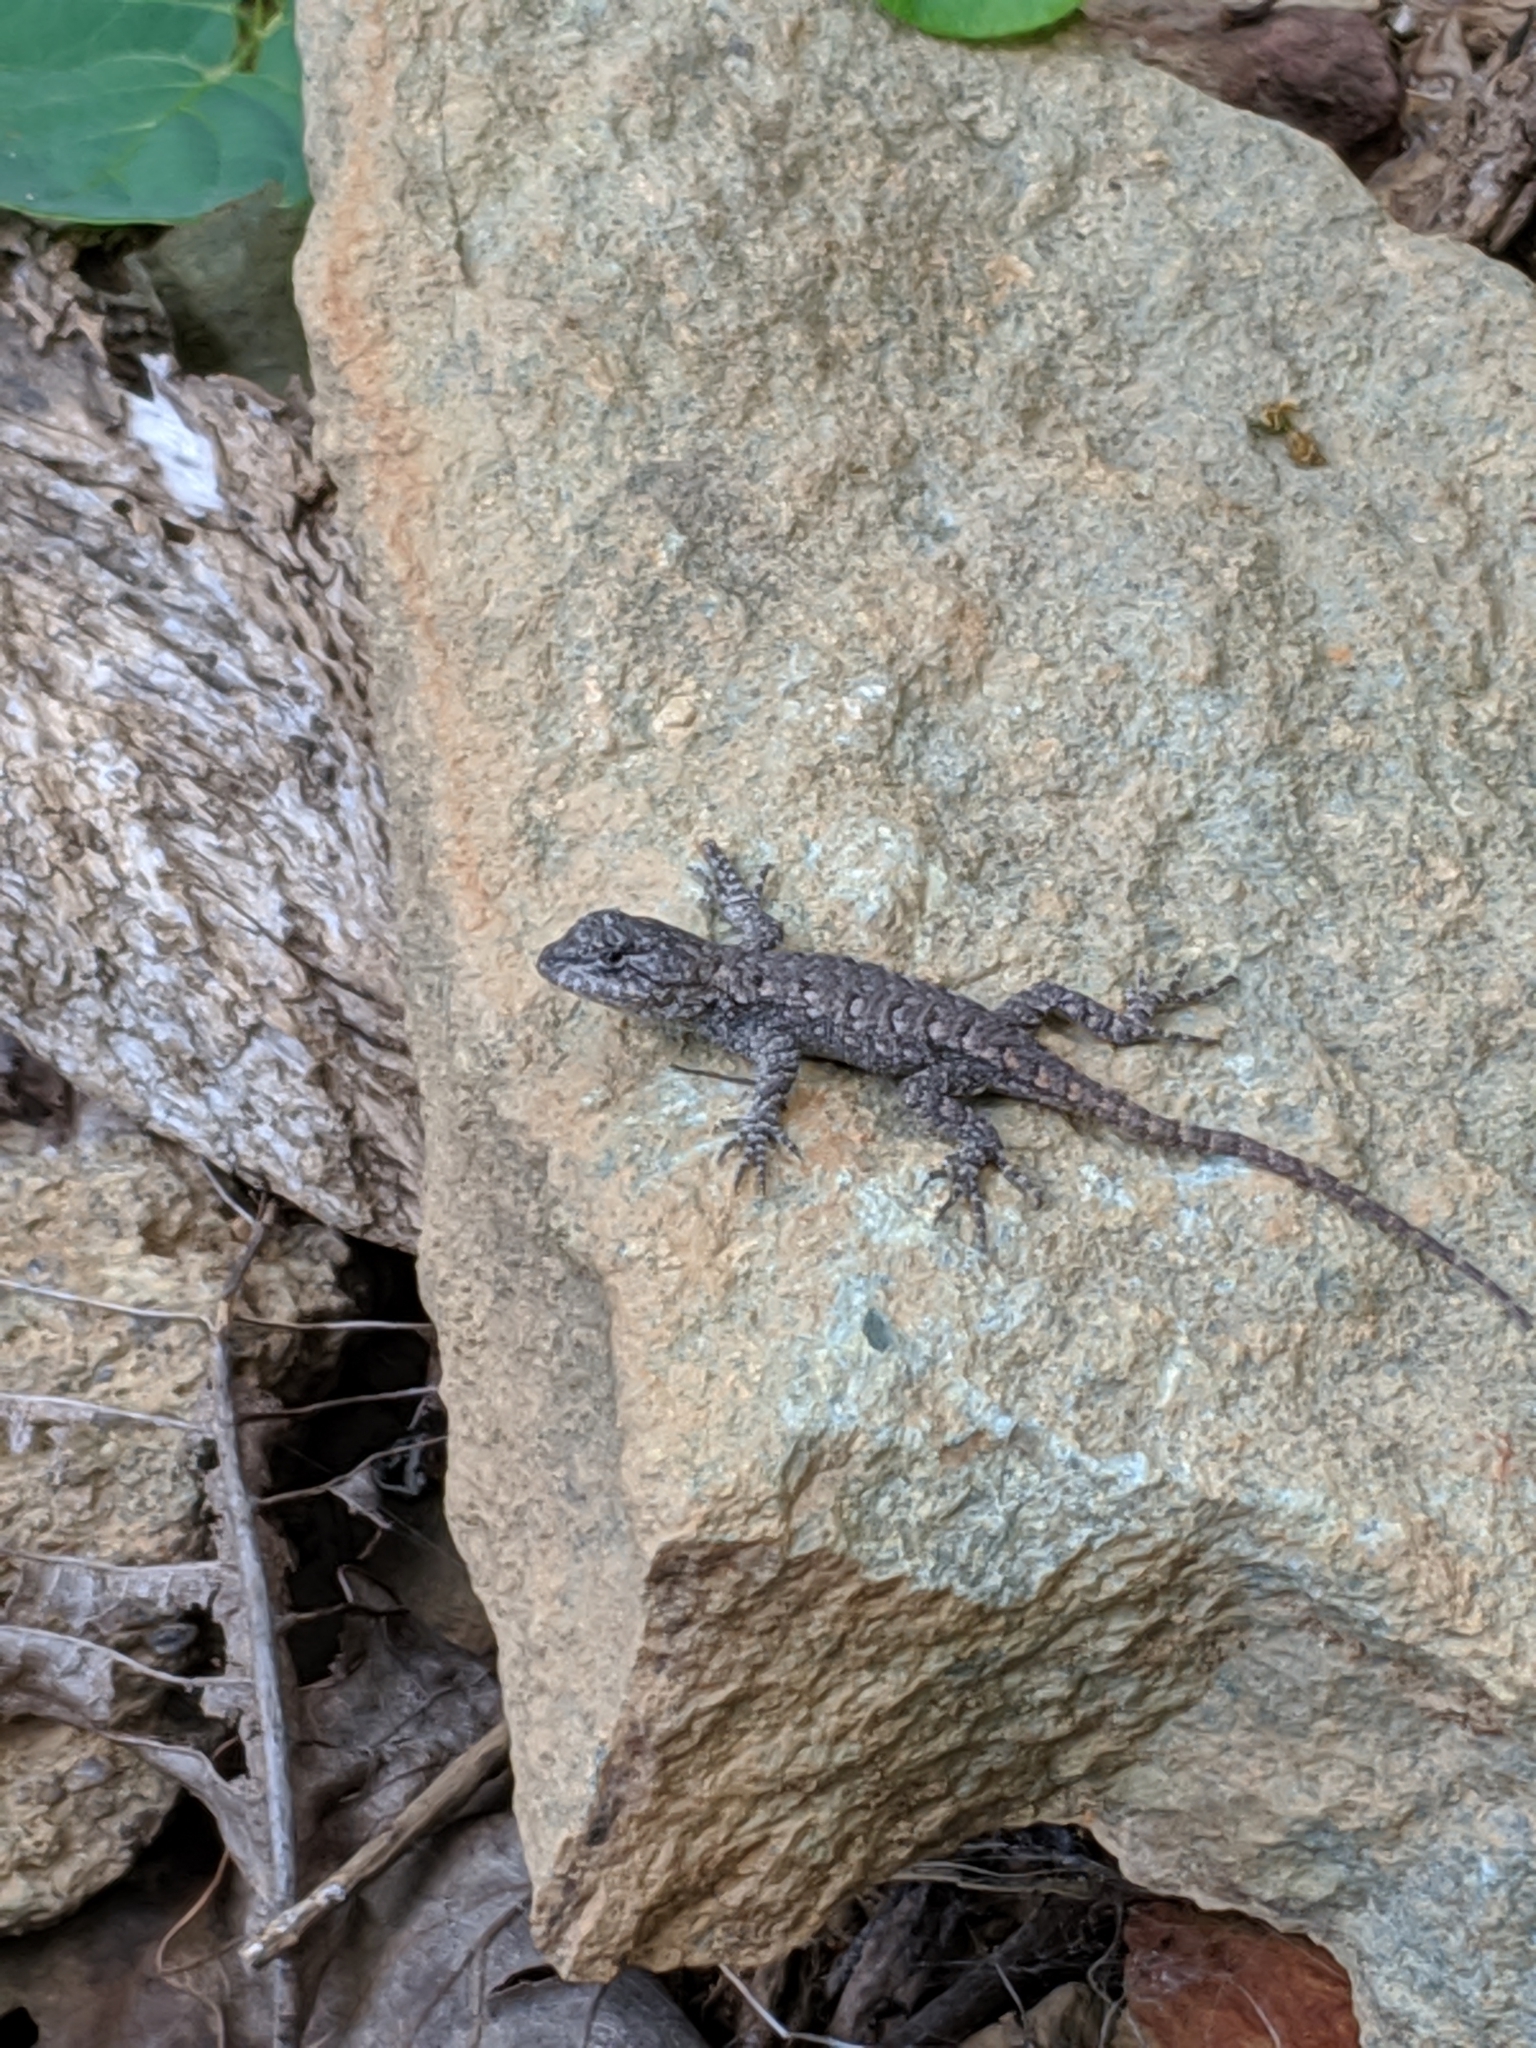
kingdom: Animalia
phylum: Chordata
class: Squamata
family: Phrynosomatidae
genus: Sceloporus
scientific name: Sceloporus undulatus
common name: Eastern fence lizard
